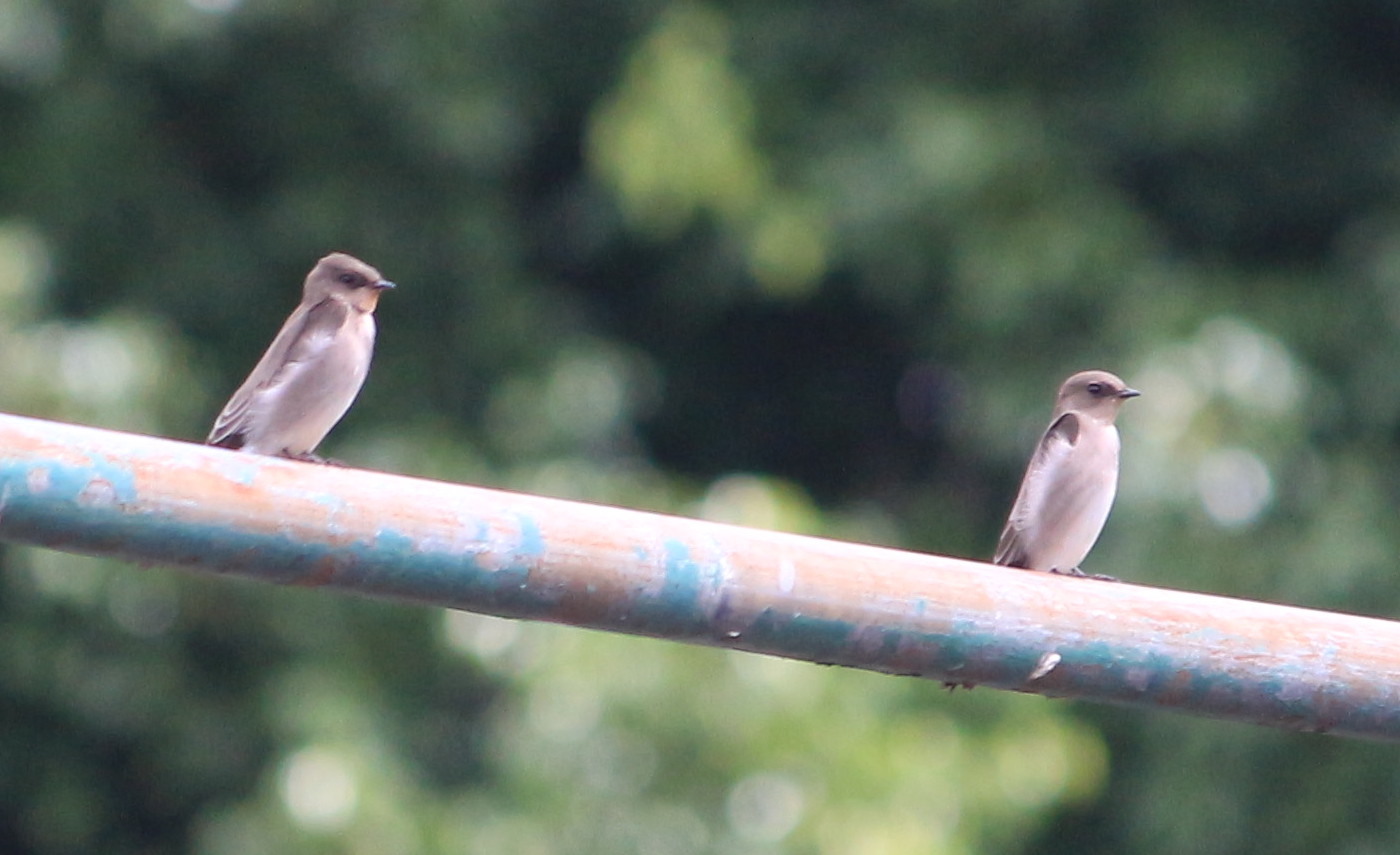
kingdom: Animalia
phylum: Chordata
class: Aves
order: Passeriformes
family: Hirundinidae
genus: Stelgidopteryx
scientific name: Stelgidopteryx serripennis
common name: Northern rough-winged swallow
